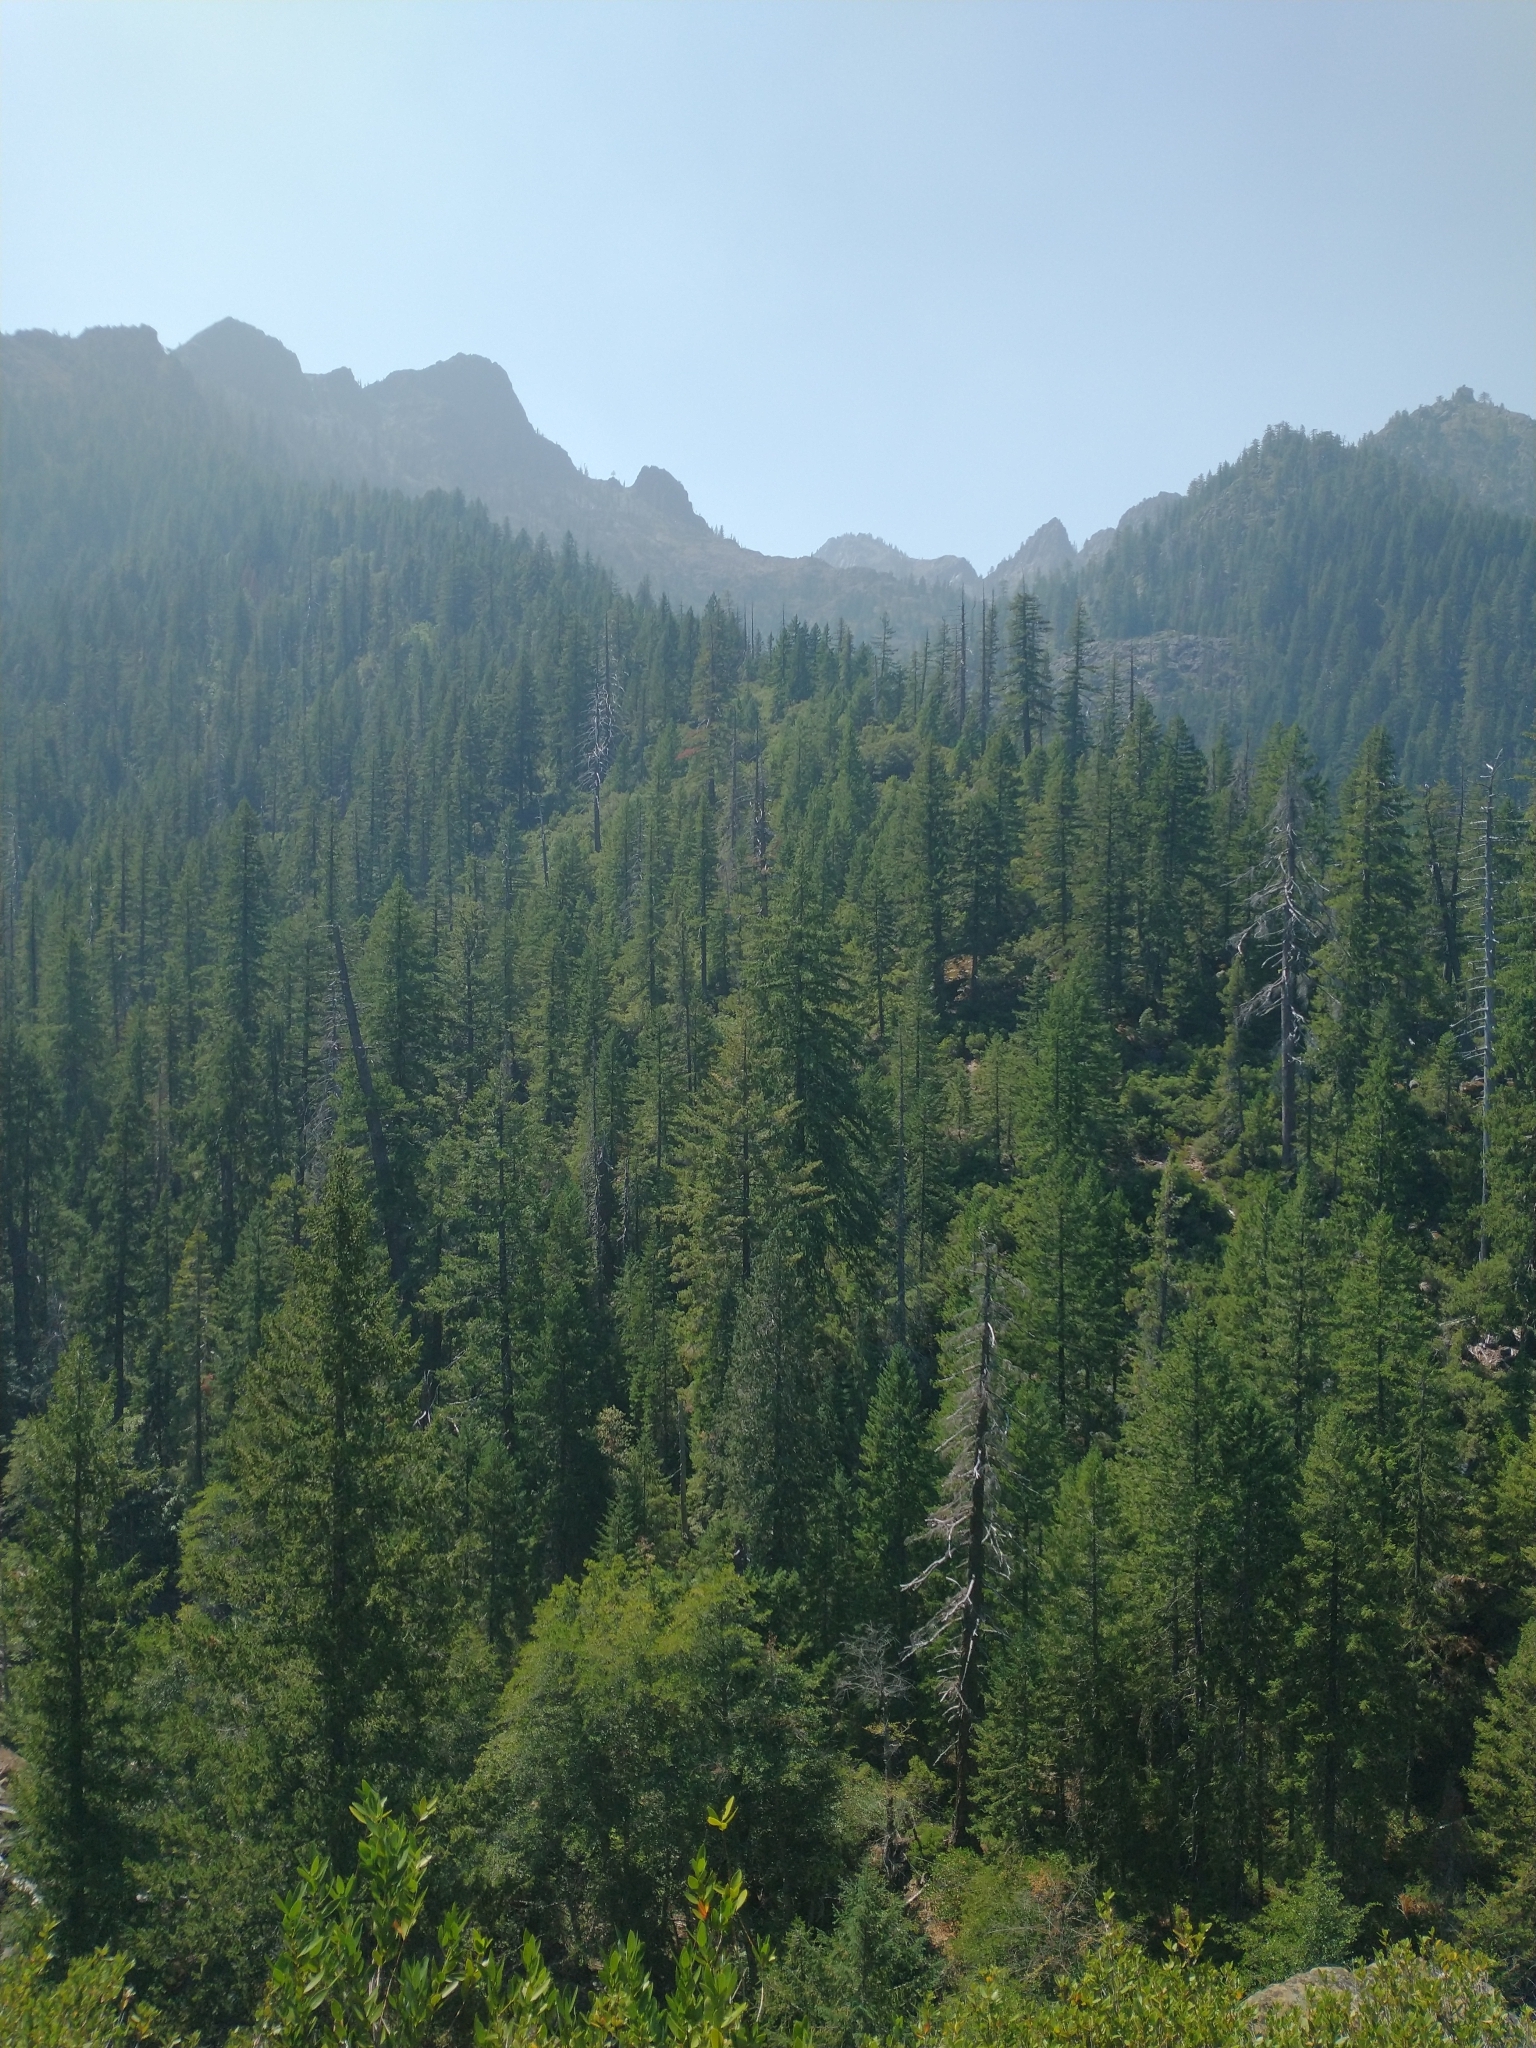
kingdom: Plantae
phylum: Tracheophyta
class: Pinopsida
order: Pinales
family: Pinaceae
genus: Pseudotsuga
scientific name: Pseudotsuga menziesii
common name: Douglas fir
